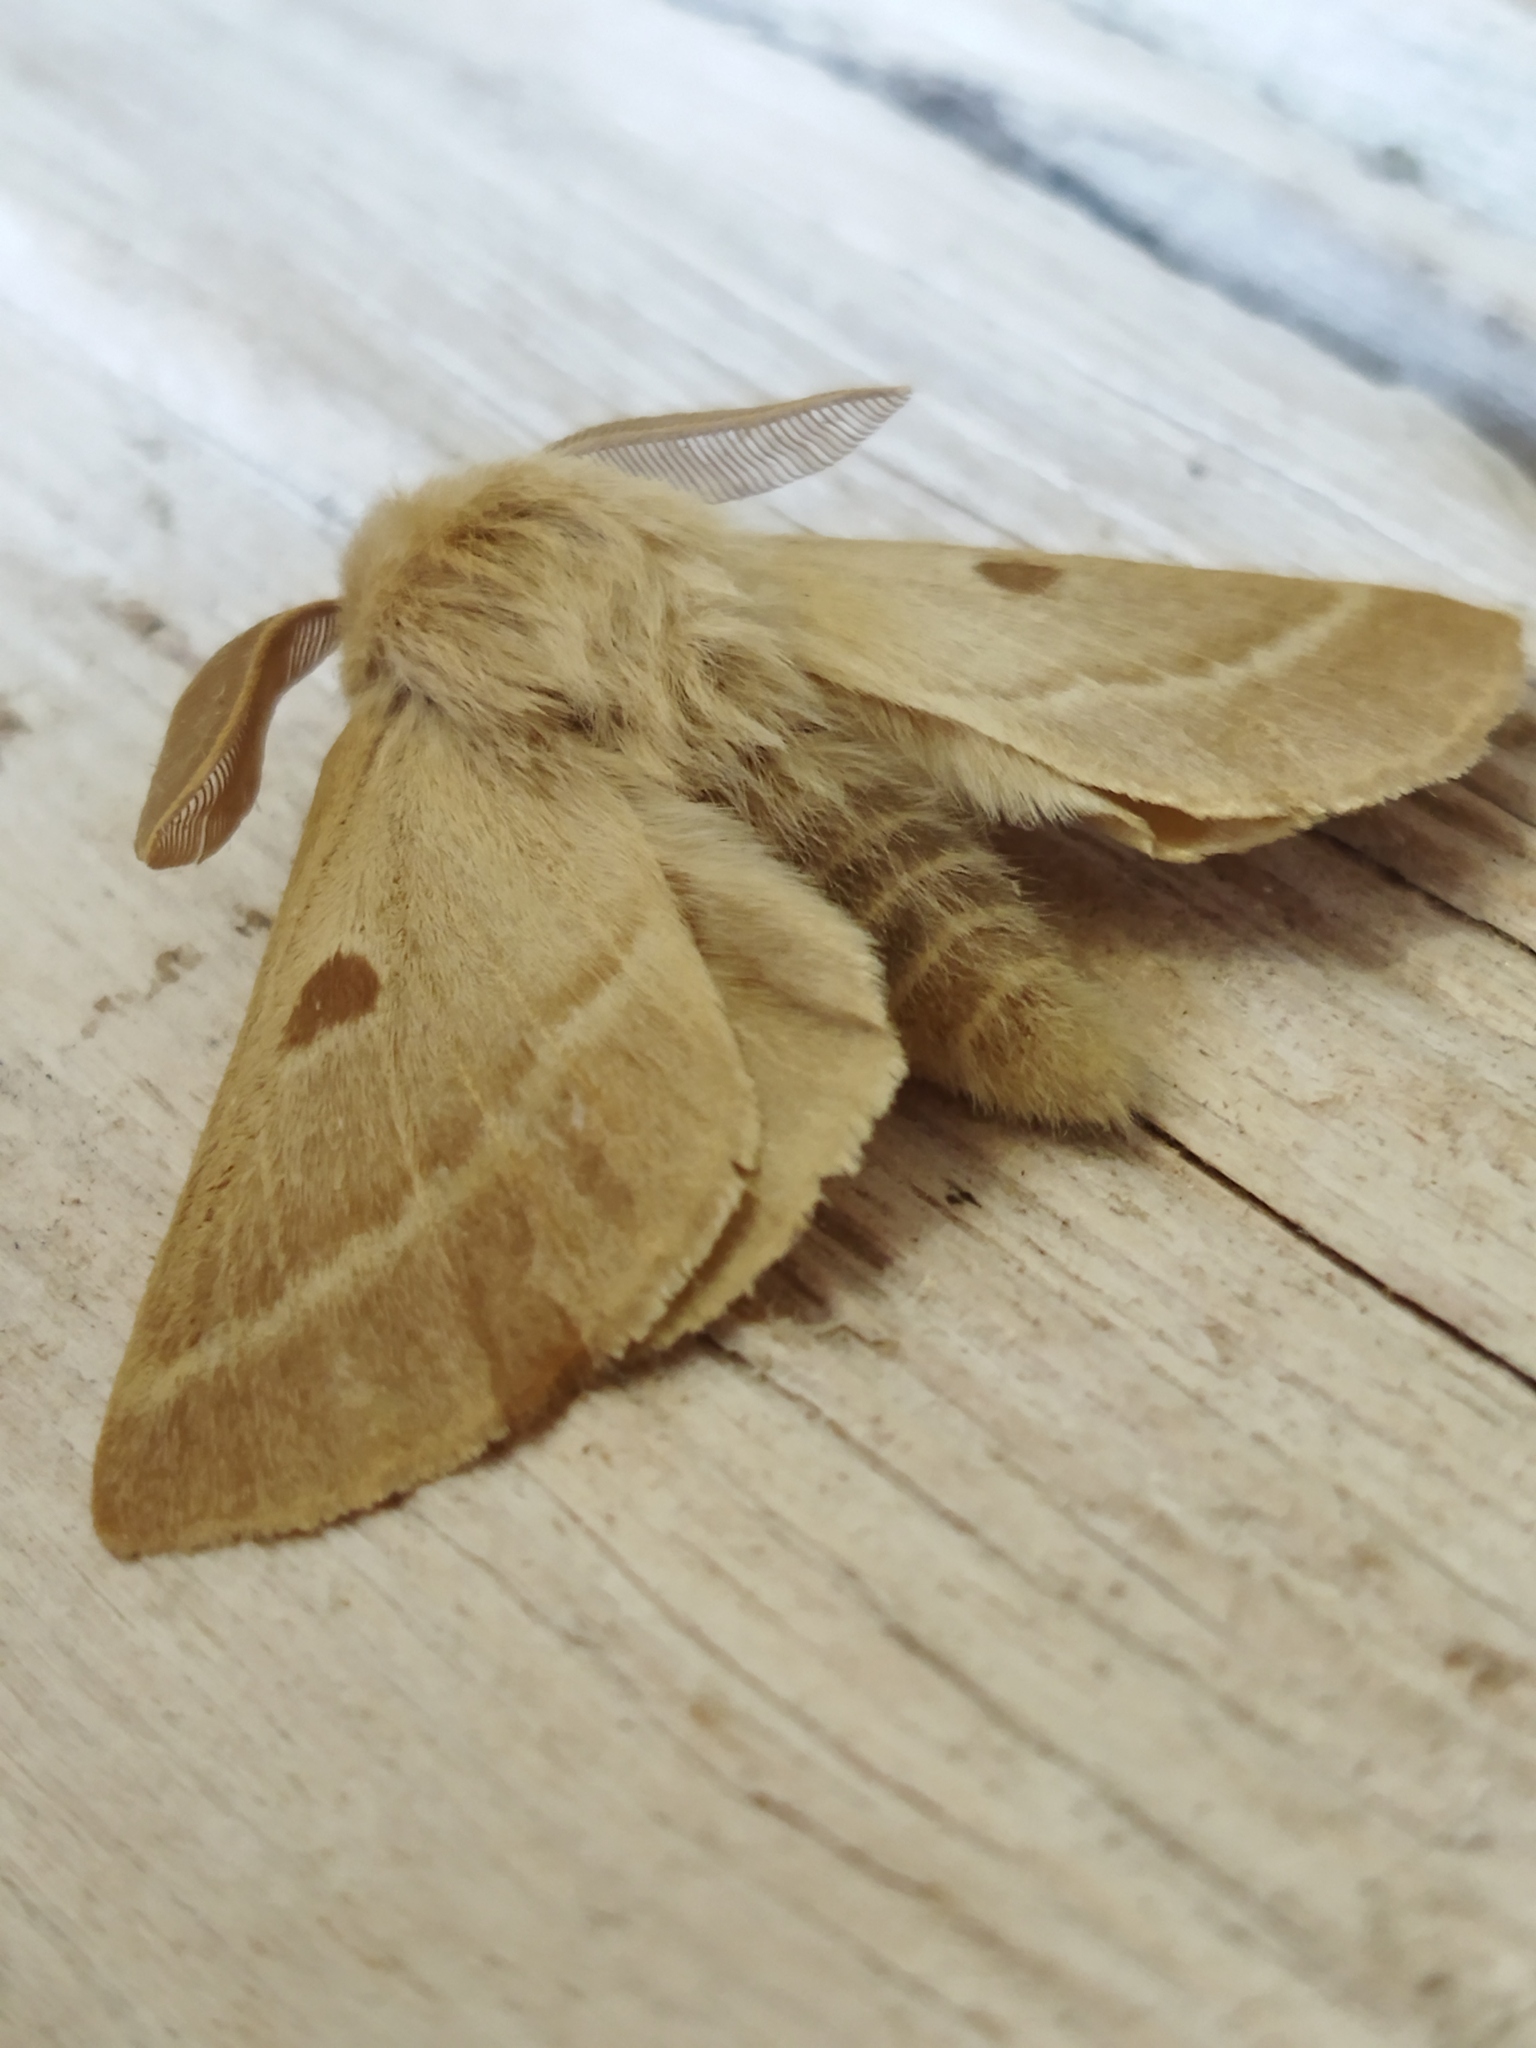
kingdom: Animalia
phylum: Arthropoda
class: Insecta
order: Lepidoptera
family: Brahmaeidae
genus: Lemonia
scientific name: Lemonia balcanica
